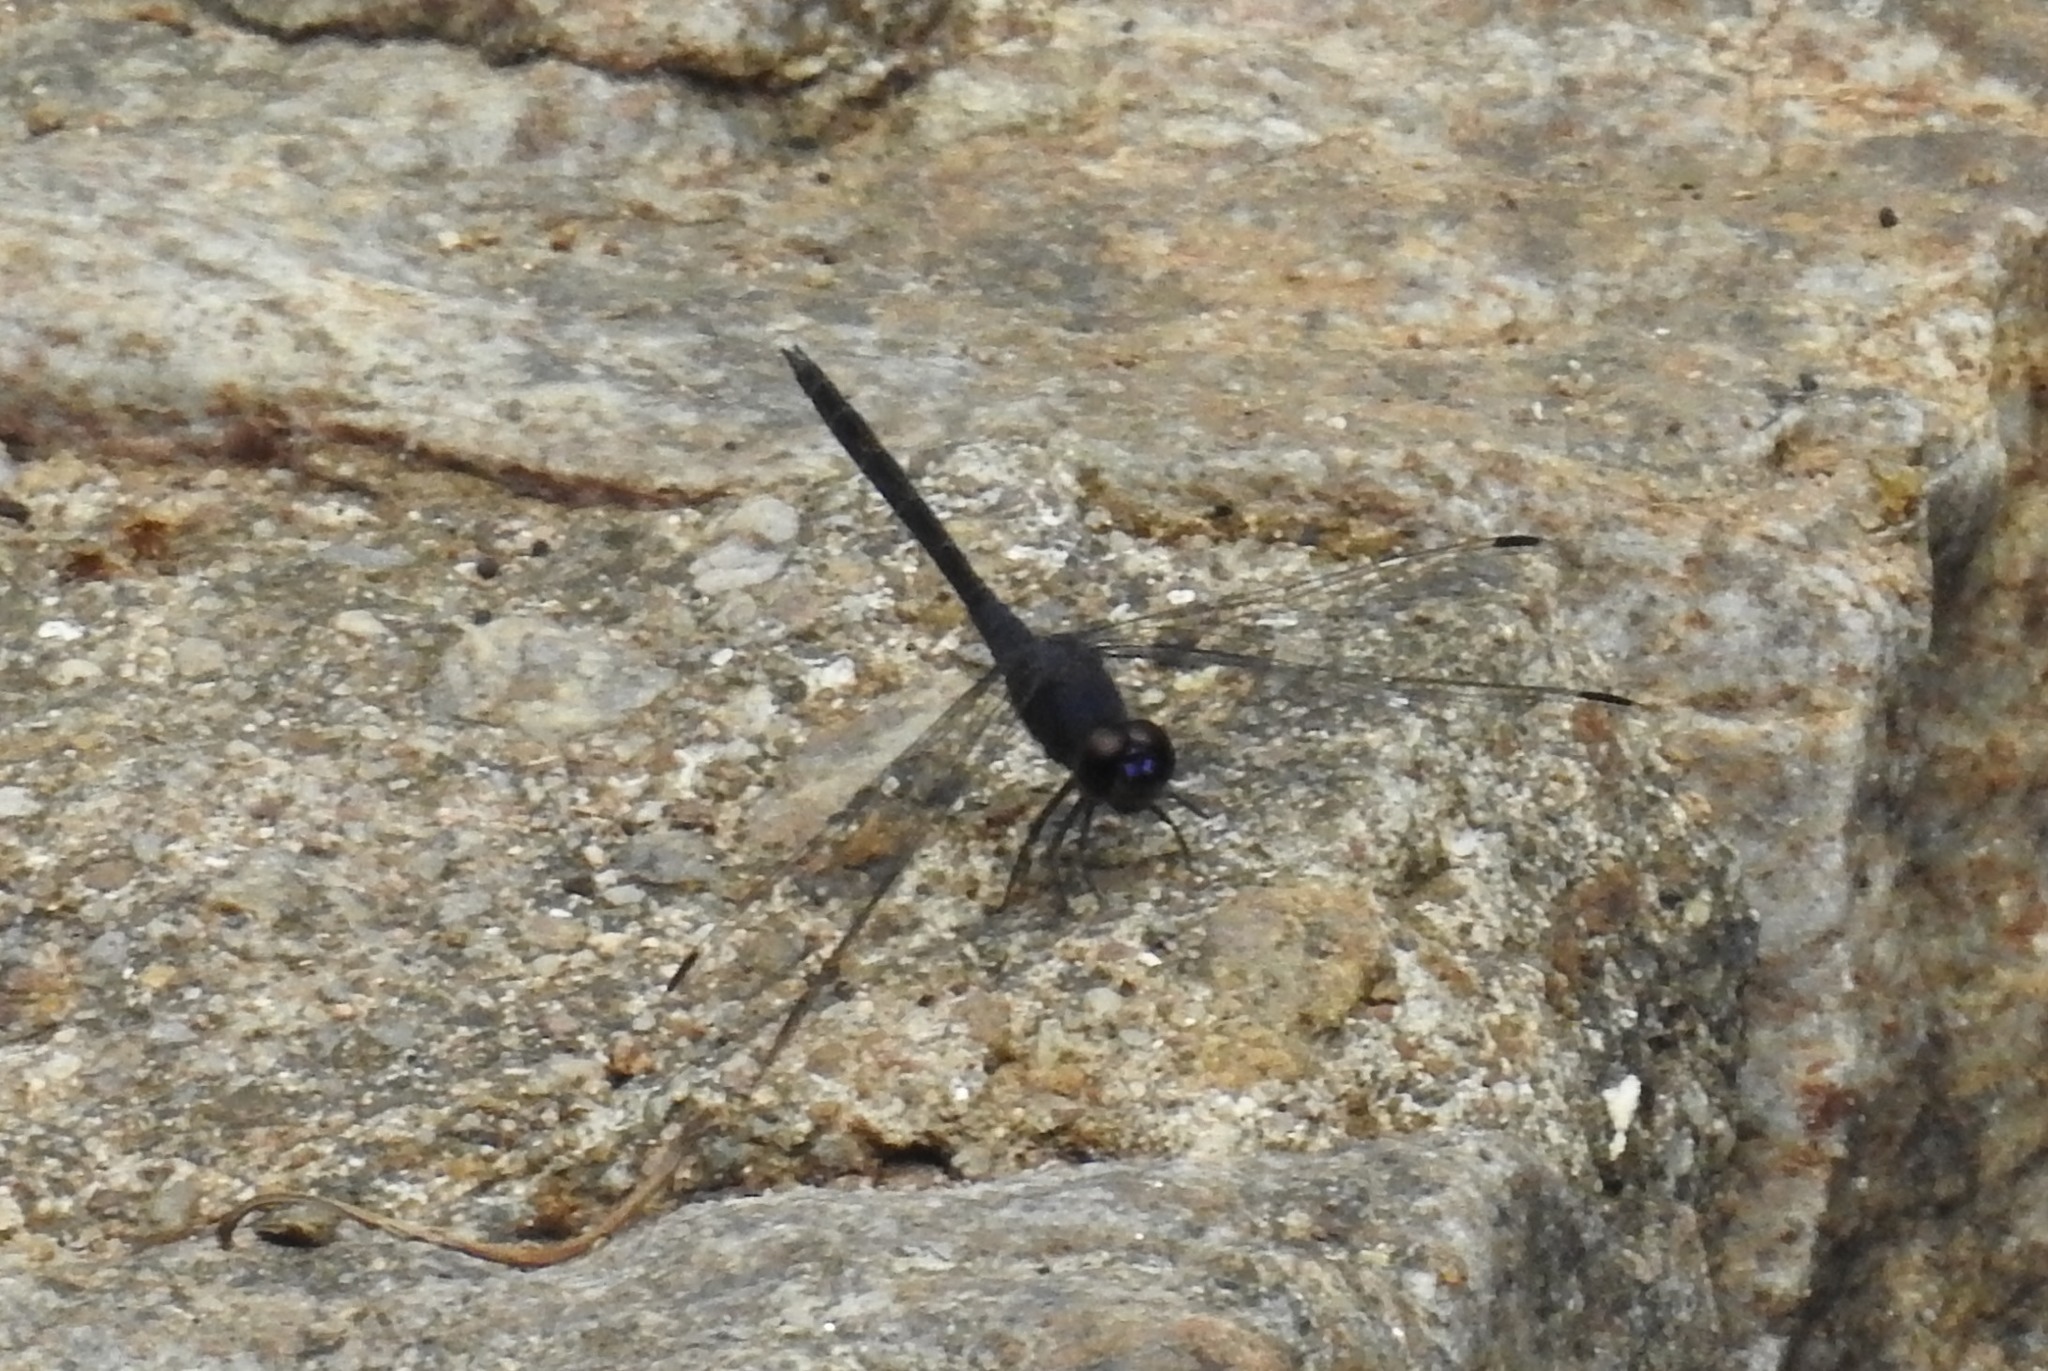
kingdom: Animalia
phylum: Arthropoda
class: Insecta
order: Odonata
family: Libellulidae
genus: Trithemis
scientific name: Trithemis festiva
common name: Indigo dropwing
